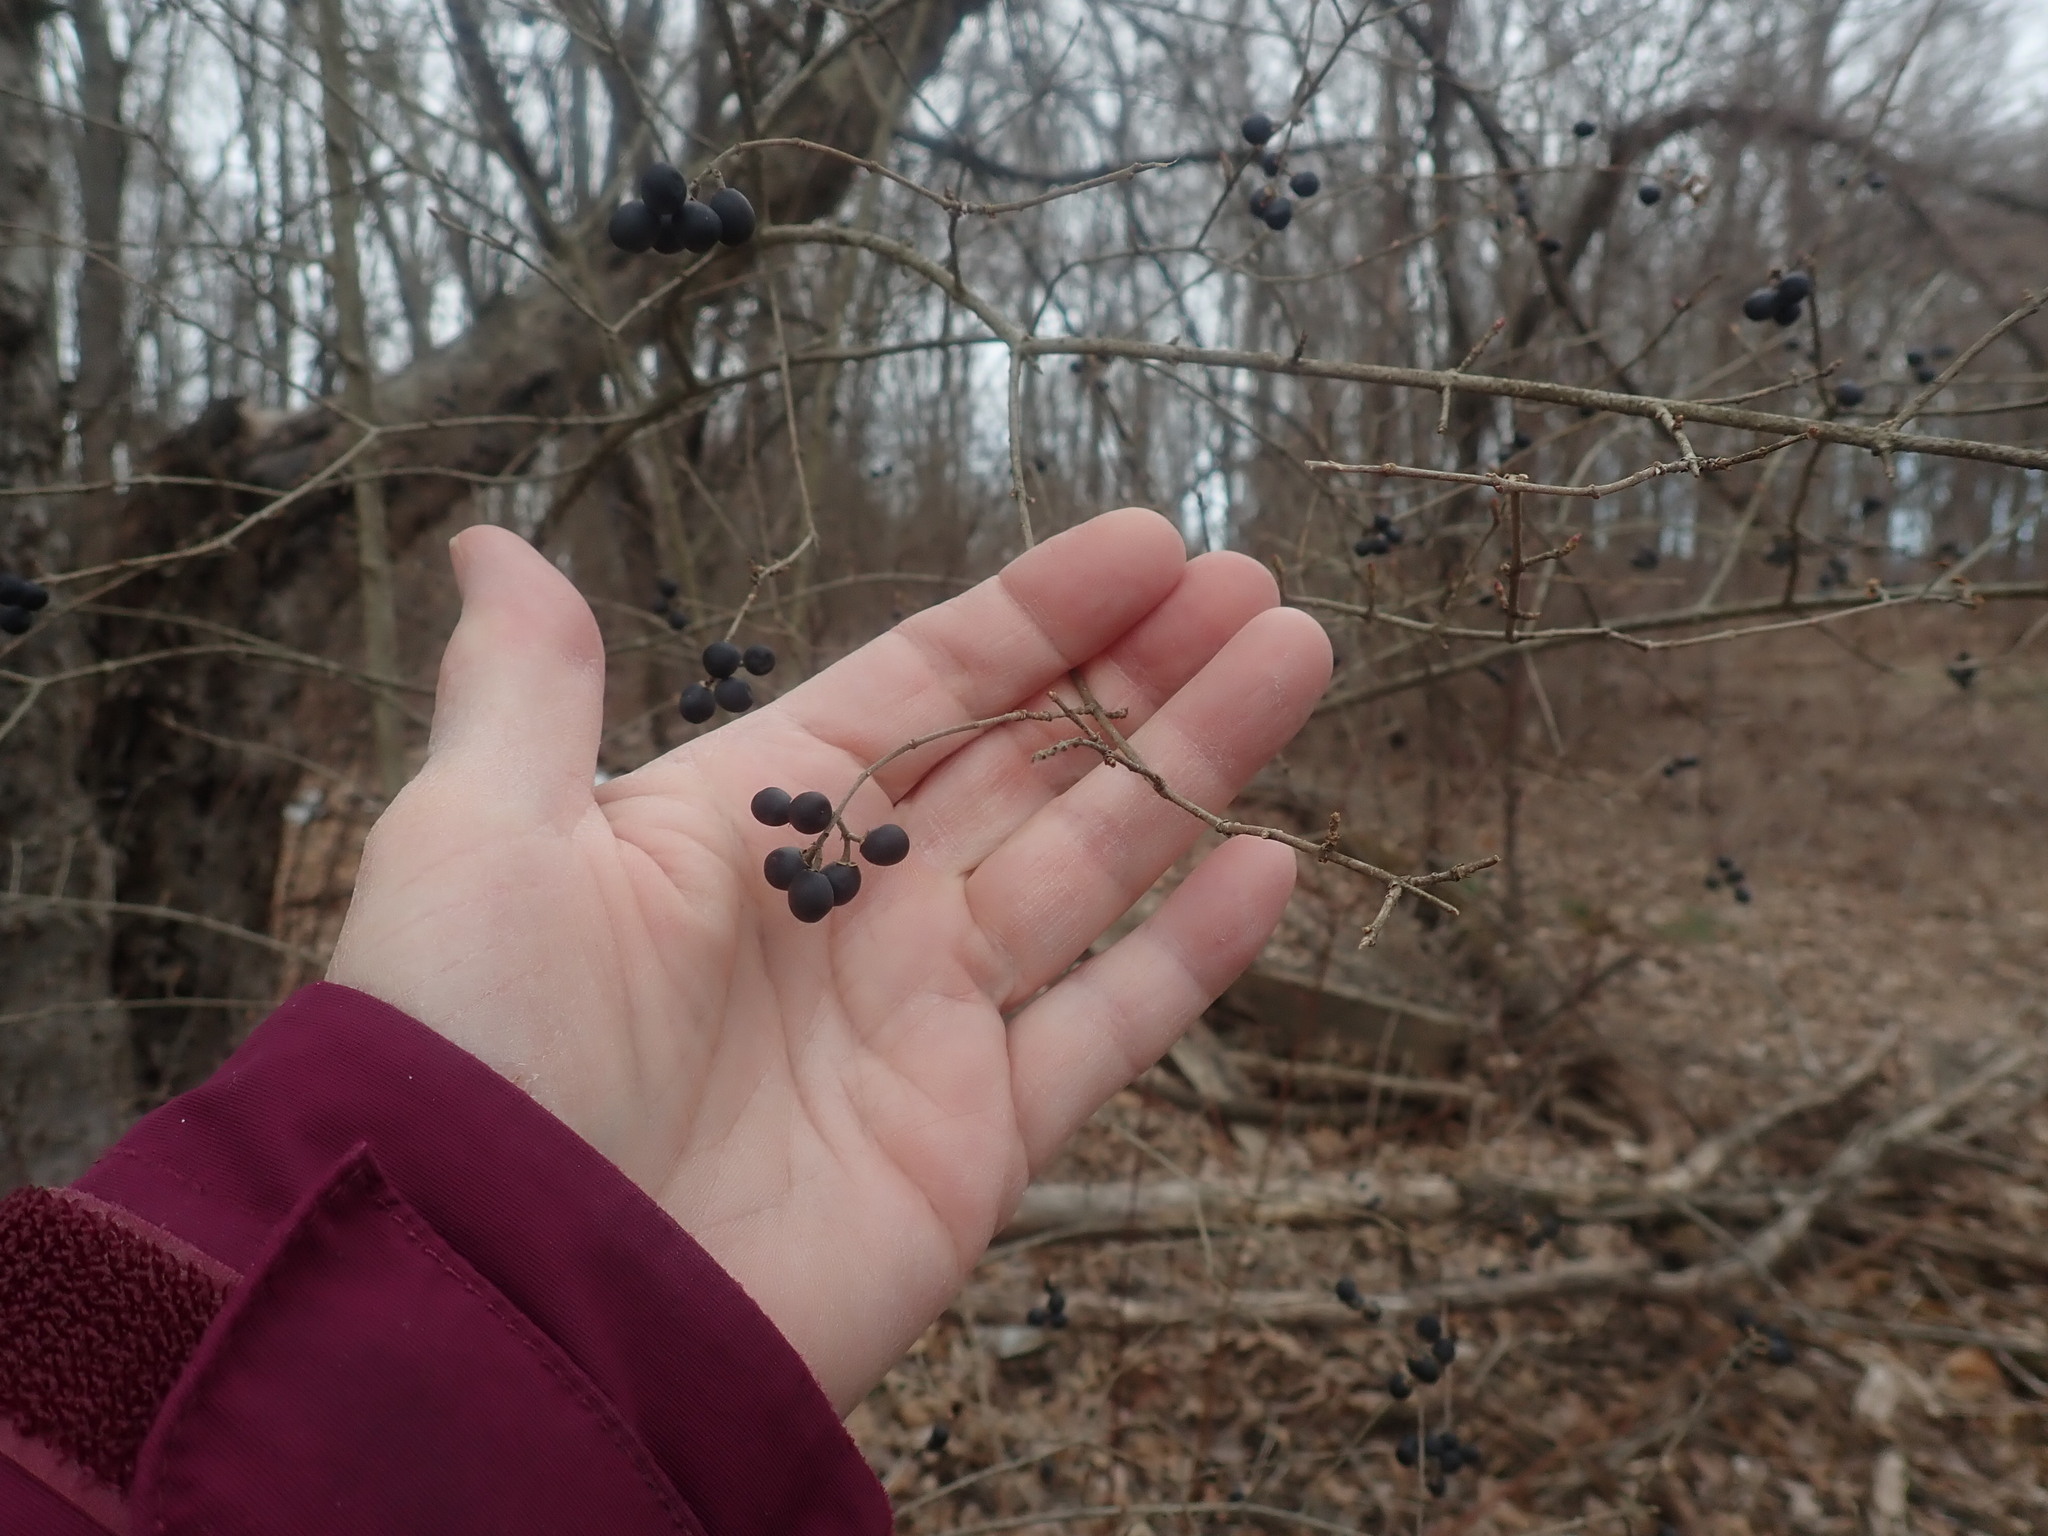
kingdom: Plantae
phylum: Tracheophyta
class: Magnoliopsida
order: Lamiales
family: Oleaceae
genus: Ligustrum
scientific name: Ligustrum obtusifolium
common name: Border privet
